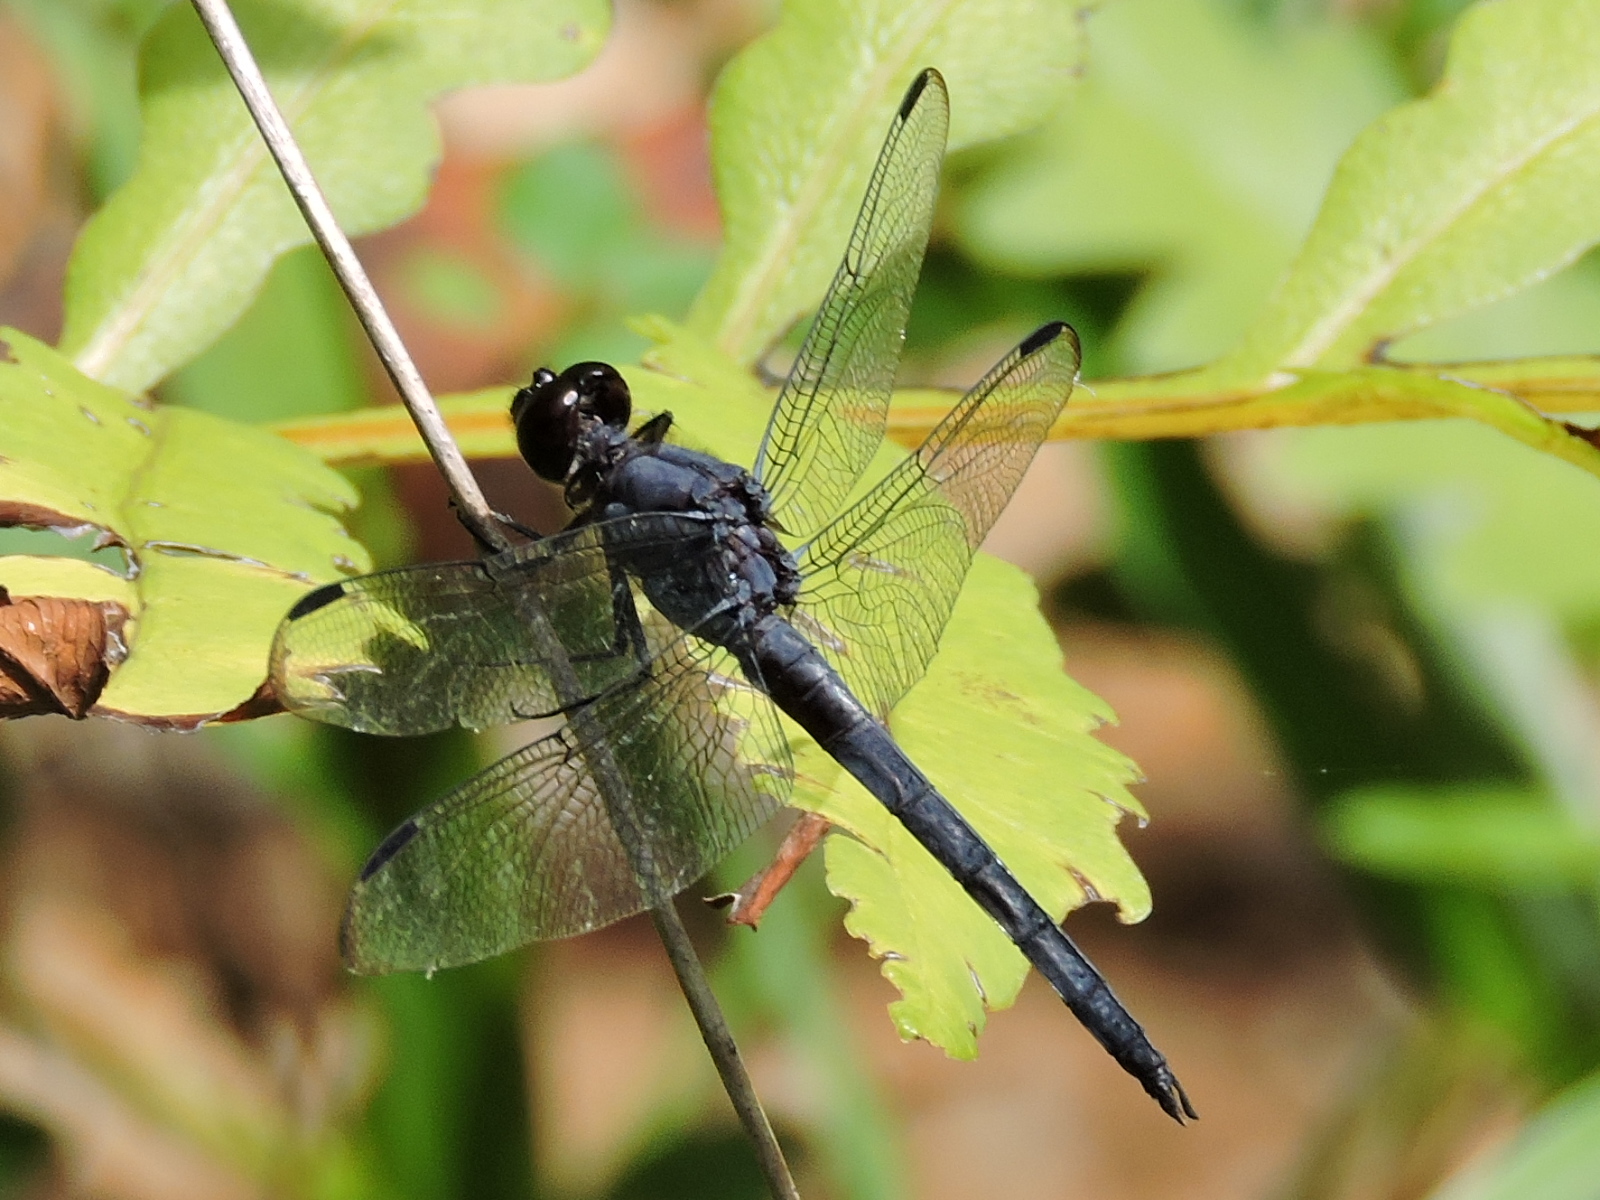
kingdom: Animalia
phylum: Arthropoda
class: Insecta
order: Odonata
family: Libellulidae
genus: Libellula
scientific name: Libellula incesta
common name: Slaty skimmer
